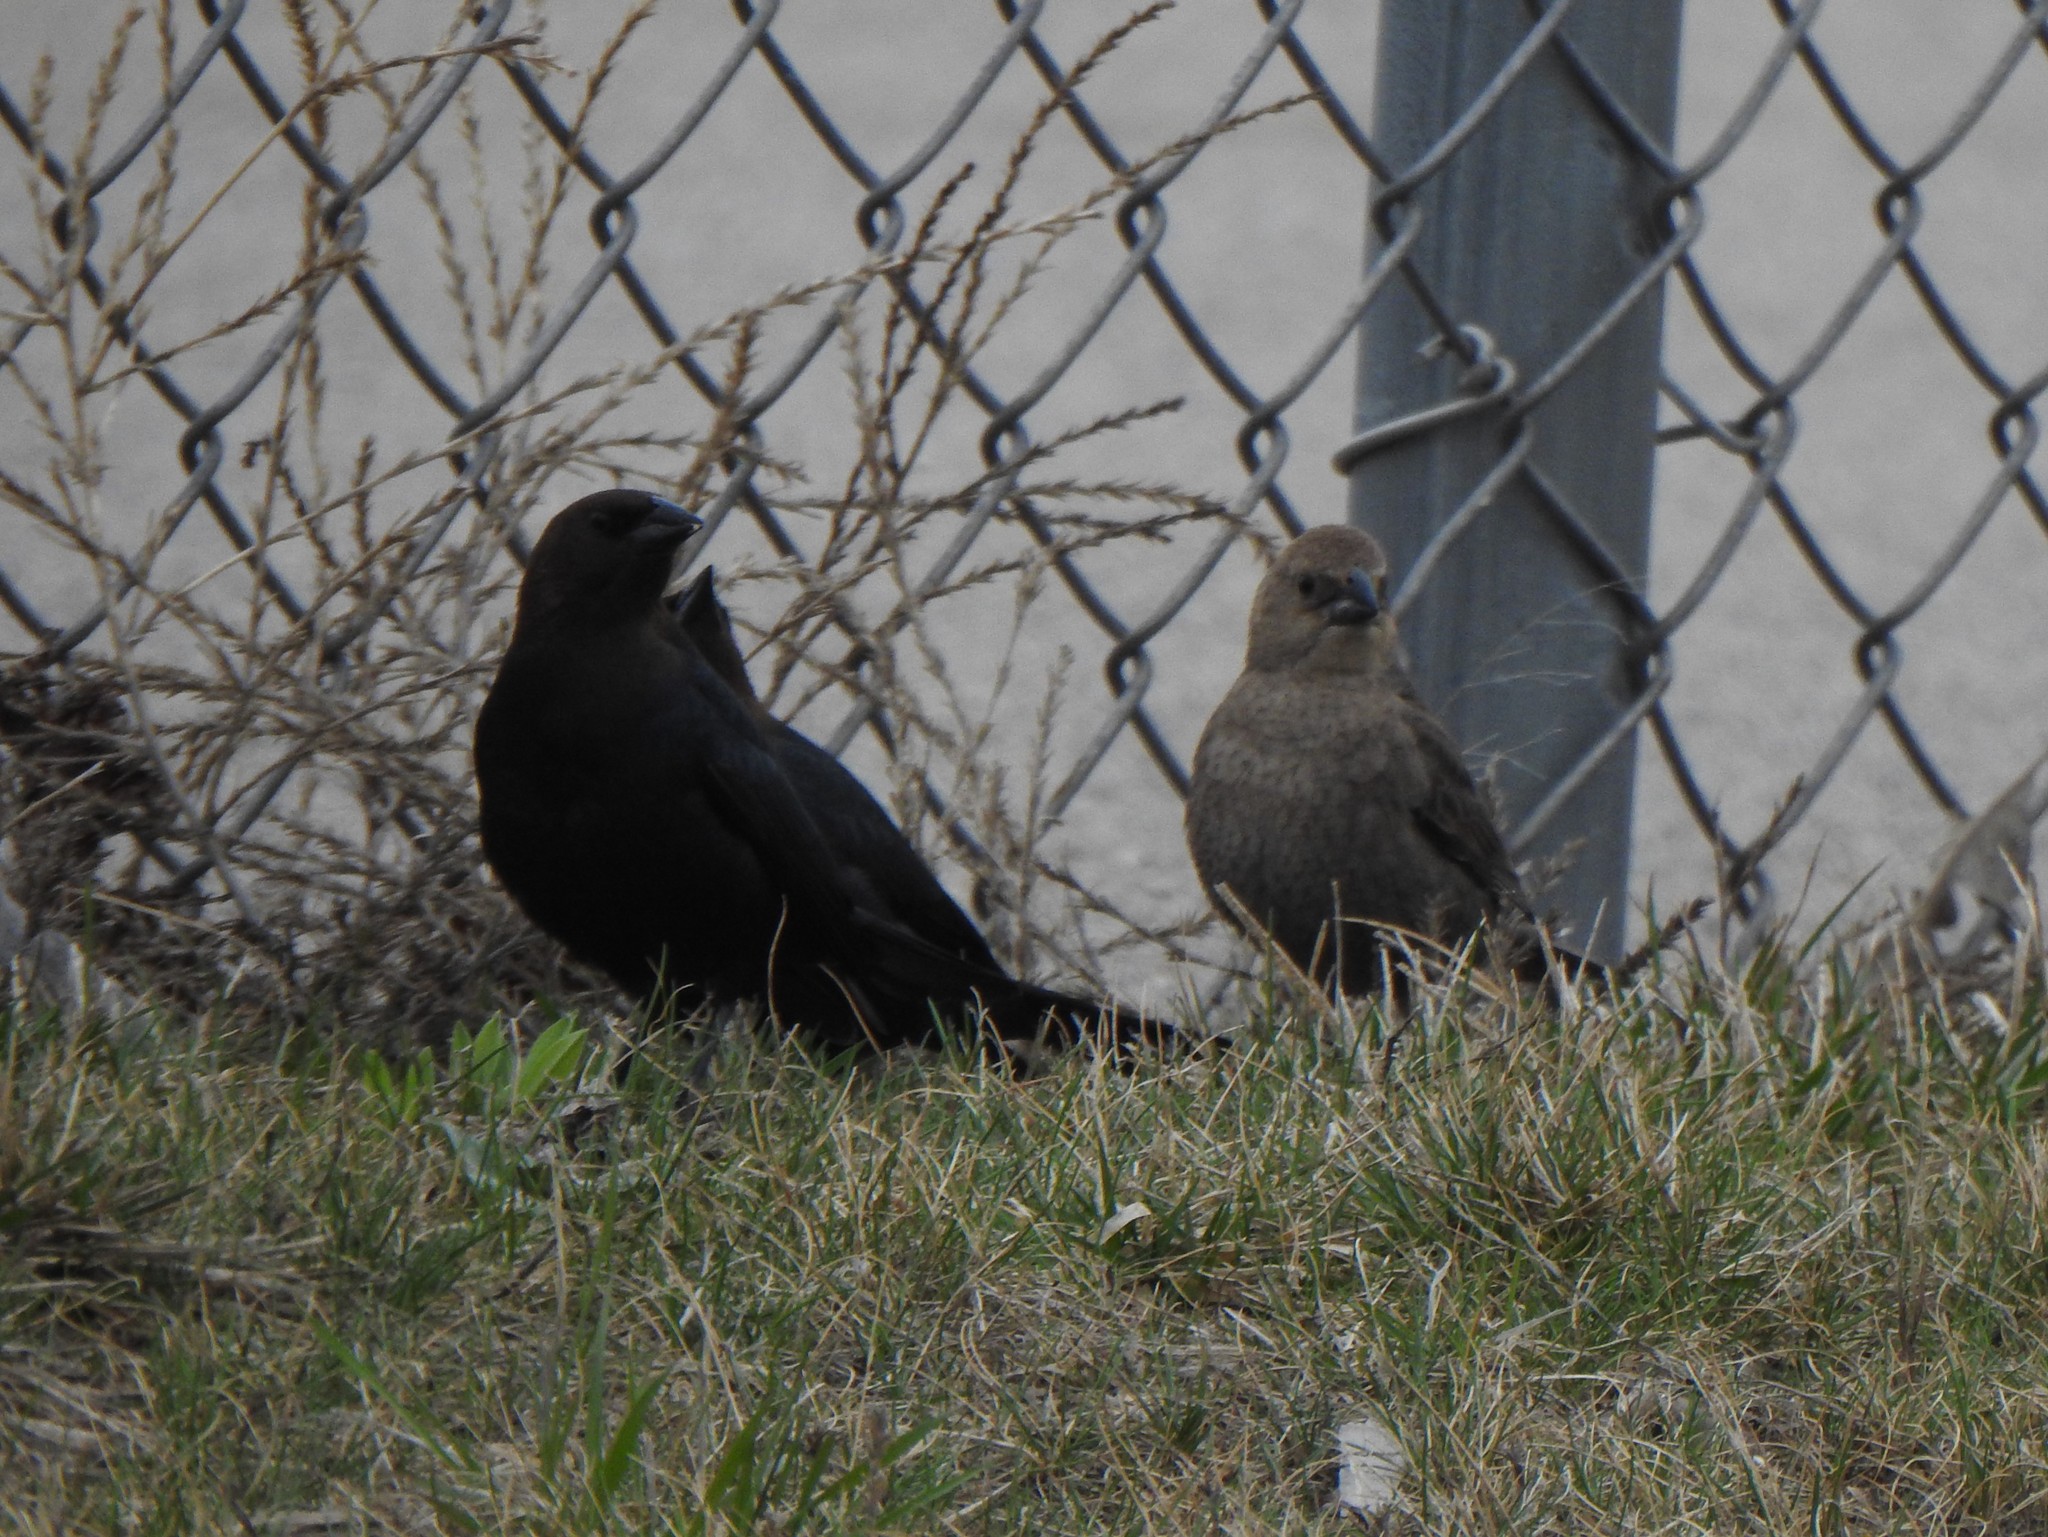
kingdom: Animalia
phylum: Chordata
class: Aves
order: Passeriformes
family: Icteridae
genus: Molothrus
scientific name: Molothrus ater
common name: Brown-headed cowbird
